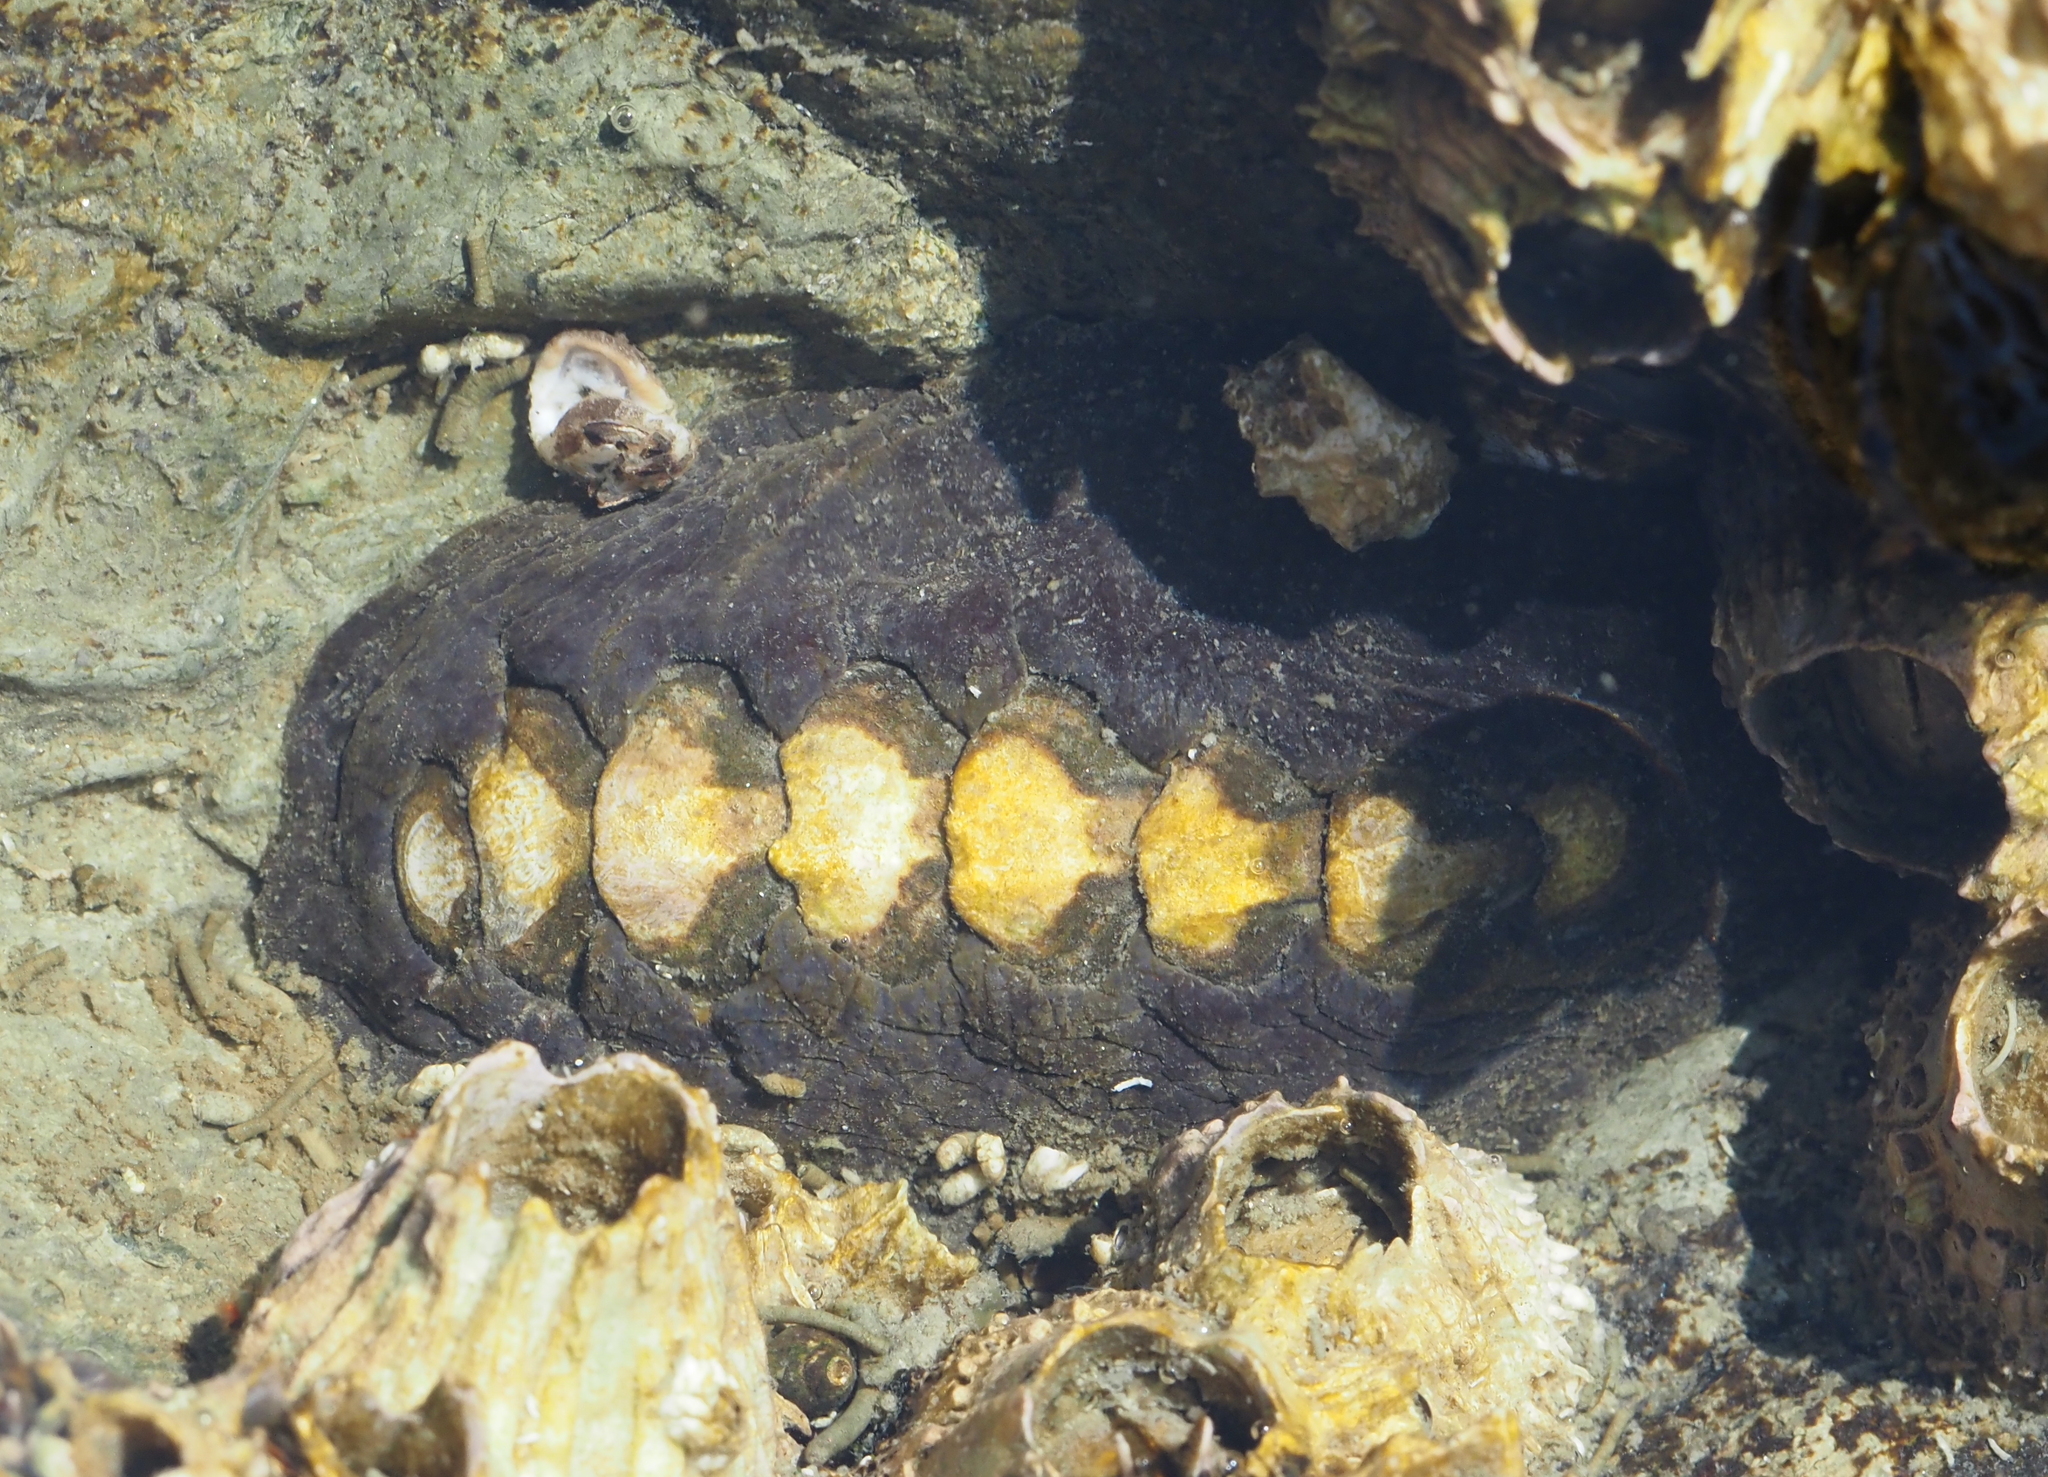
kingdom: Animalia
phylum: Mollusca
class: Polyplacophora
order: Chitonida
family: Mopaliidae
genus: Katharina
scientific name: Katharina tunicata
